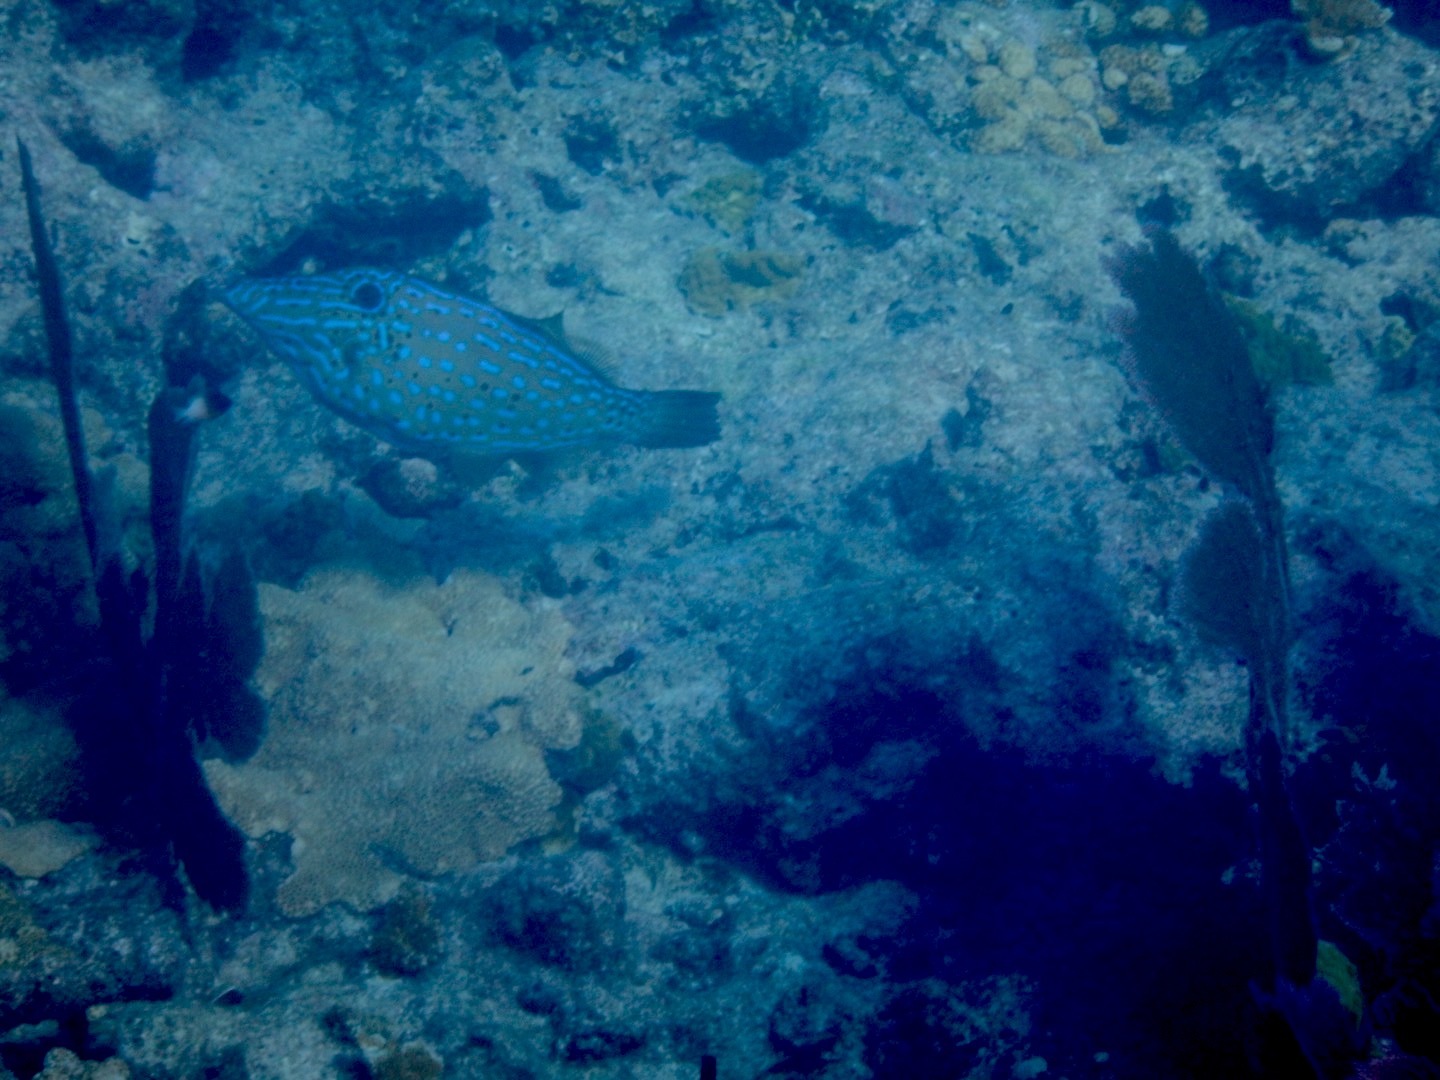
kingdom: Animalia
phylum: Chordata
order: Tetraodontiformes
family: Monacanthidae
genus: Aluterus
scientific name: Aluterus scriptus
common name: Scribbled leatherjacket filefish
